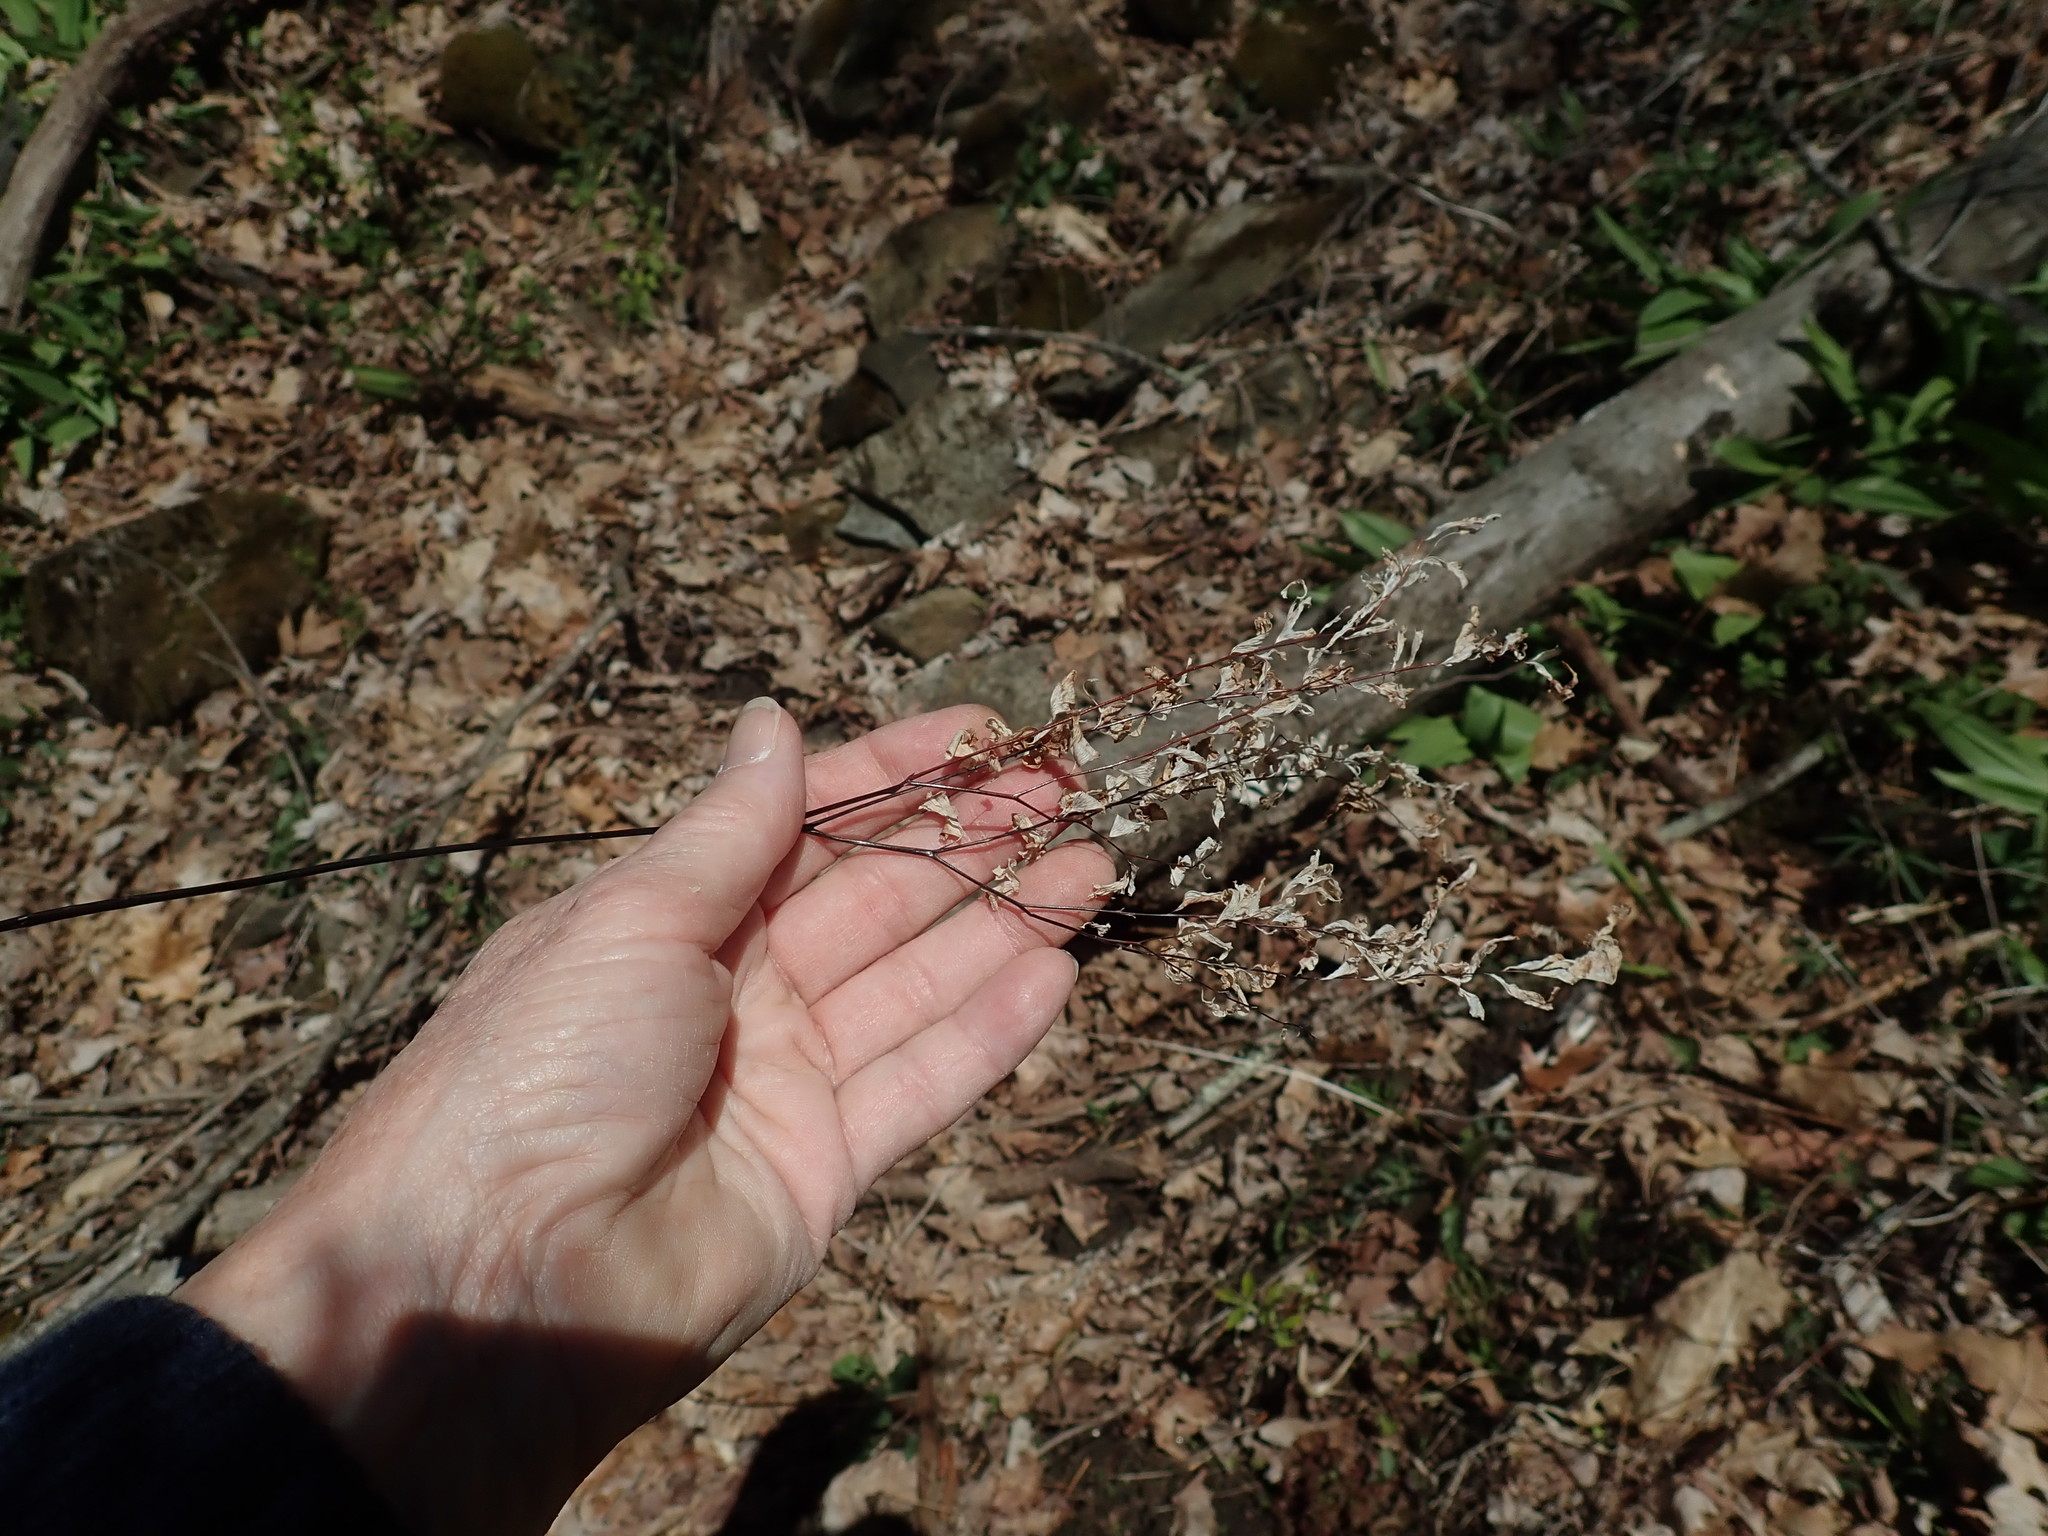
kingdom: Plantae
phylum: Tracheophyta
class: Polypodiopsida
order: Polypodiales
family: Pteridaceae
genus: Adiantum
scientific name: Adiantum pedatum
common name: Five-finger fern
